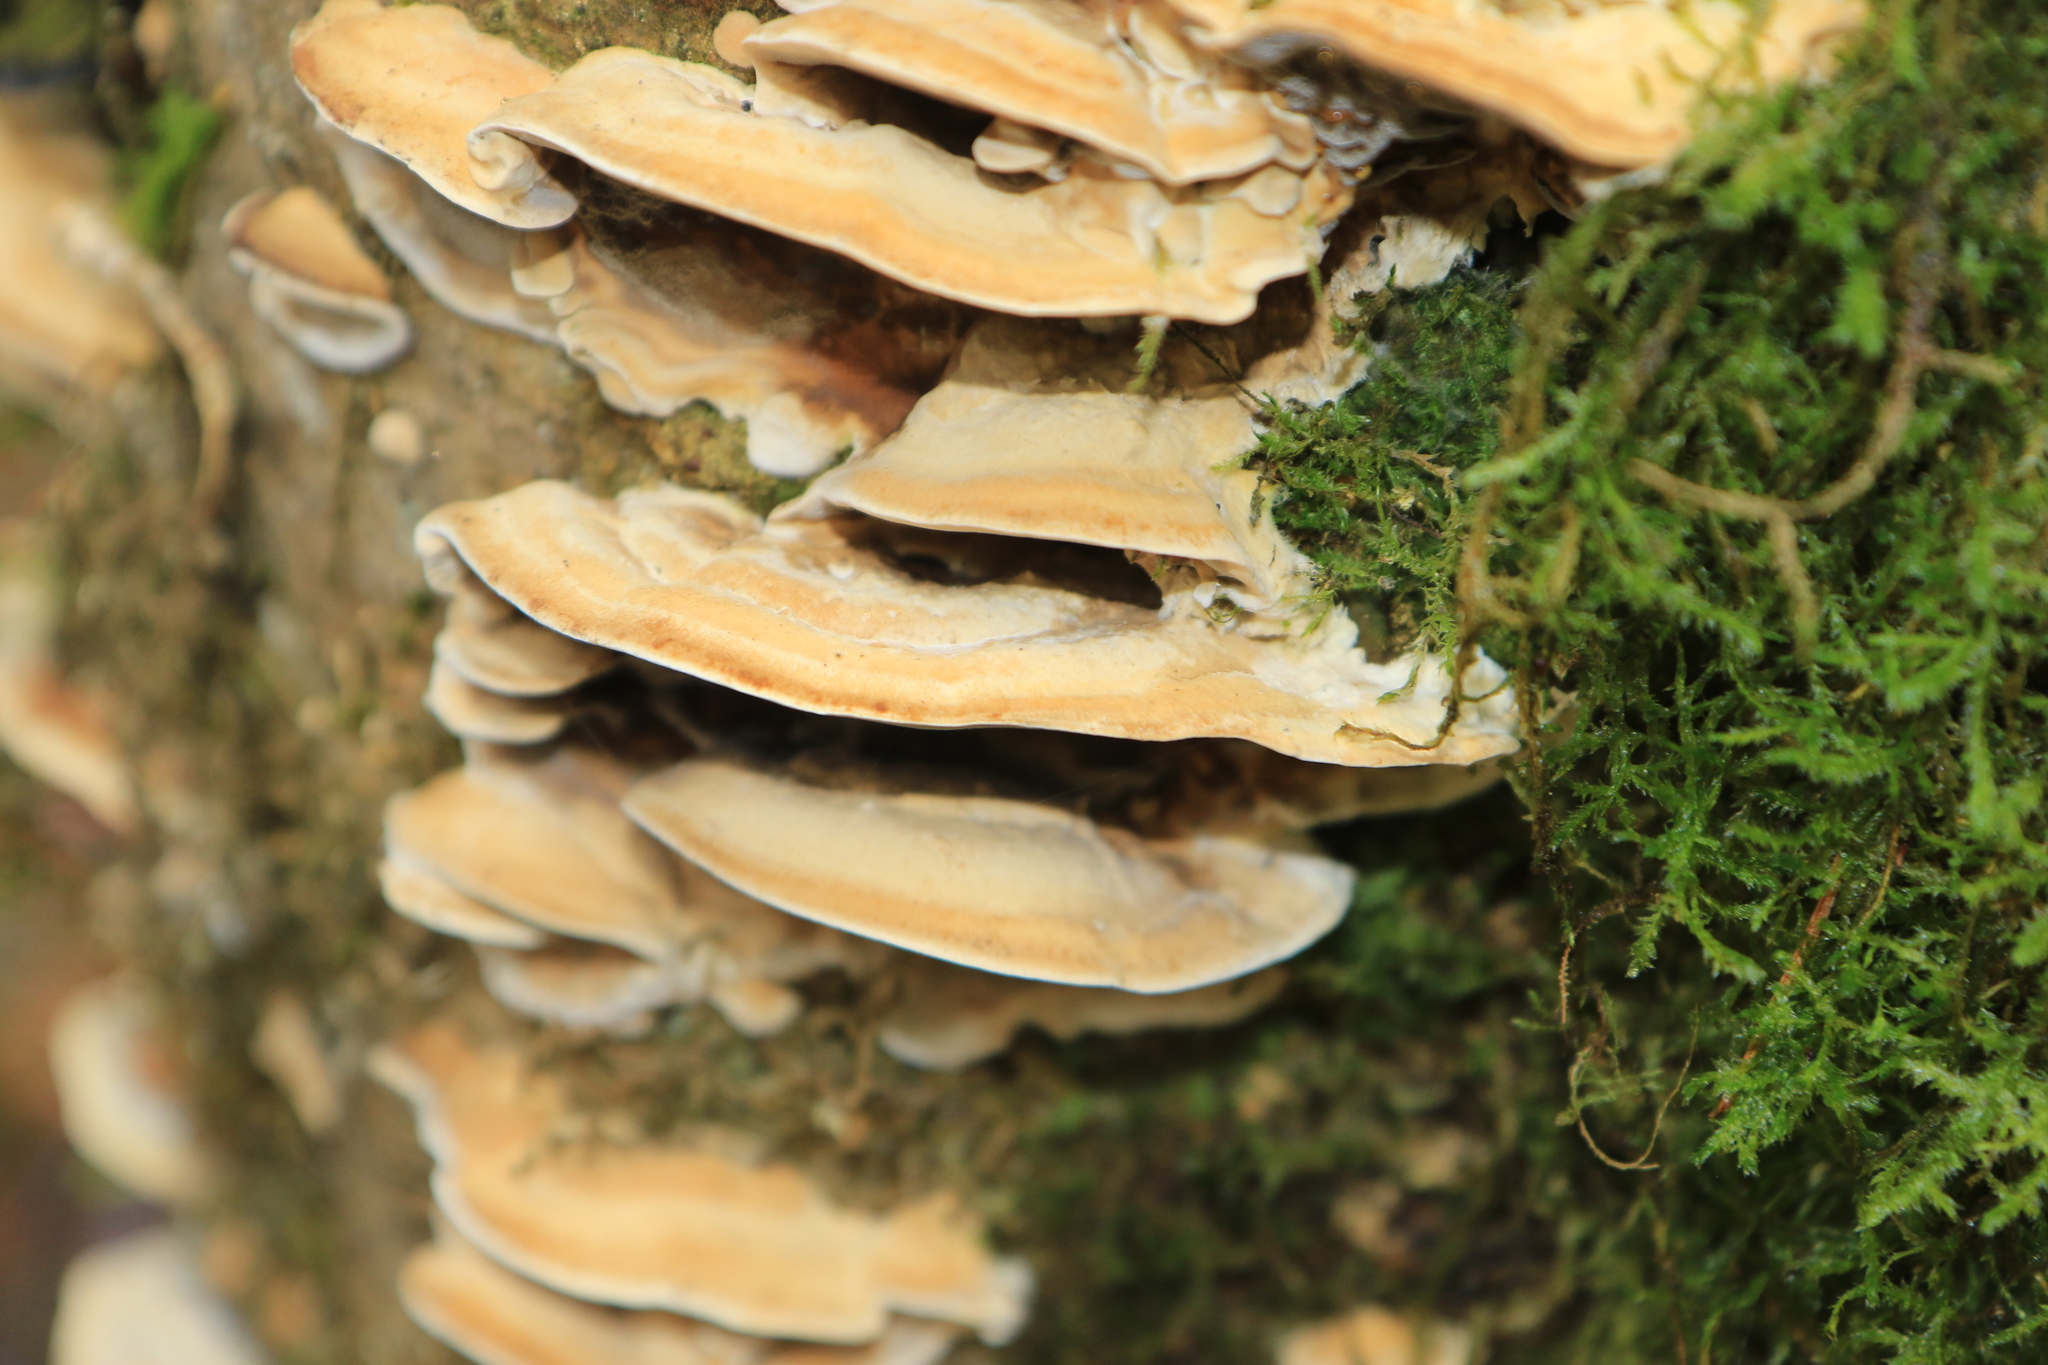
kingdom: Fungi
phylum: Basidiomycota
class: Agaricomycetes
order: Polyporales
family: Phanerochaetaceae
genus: Bjerkandera
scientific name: Bjerkandera adusta
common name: Smoky bracket
